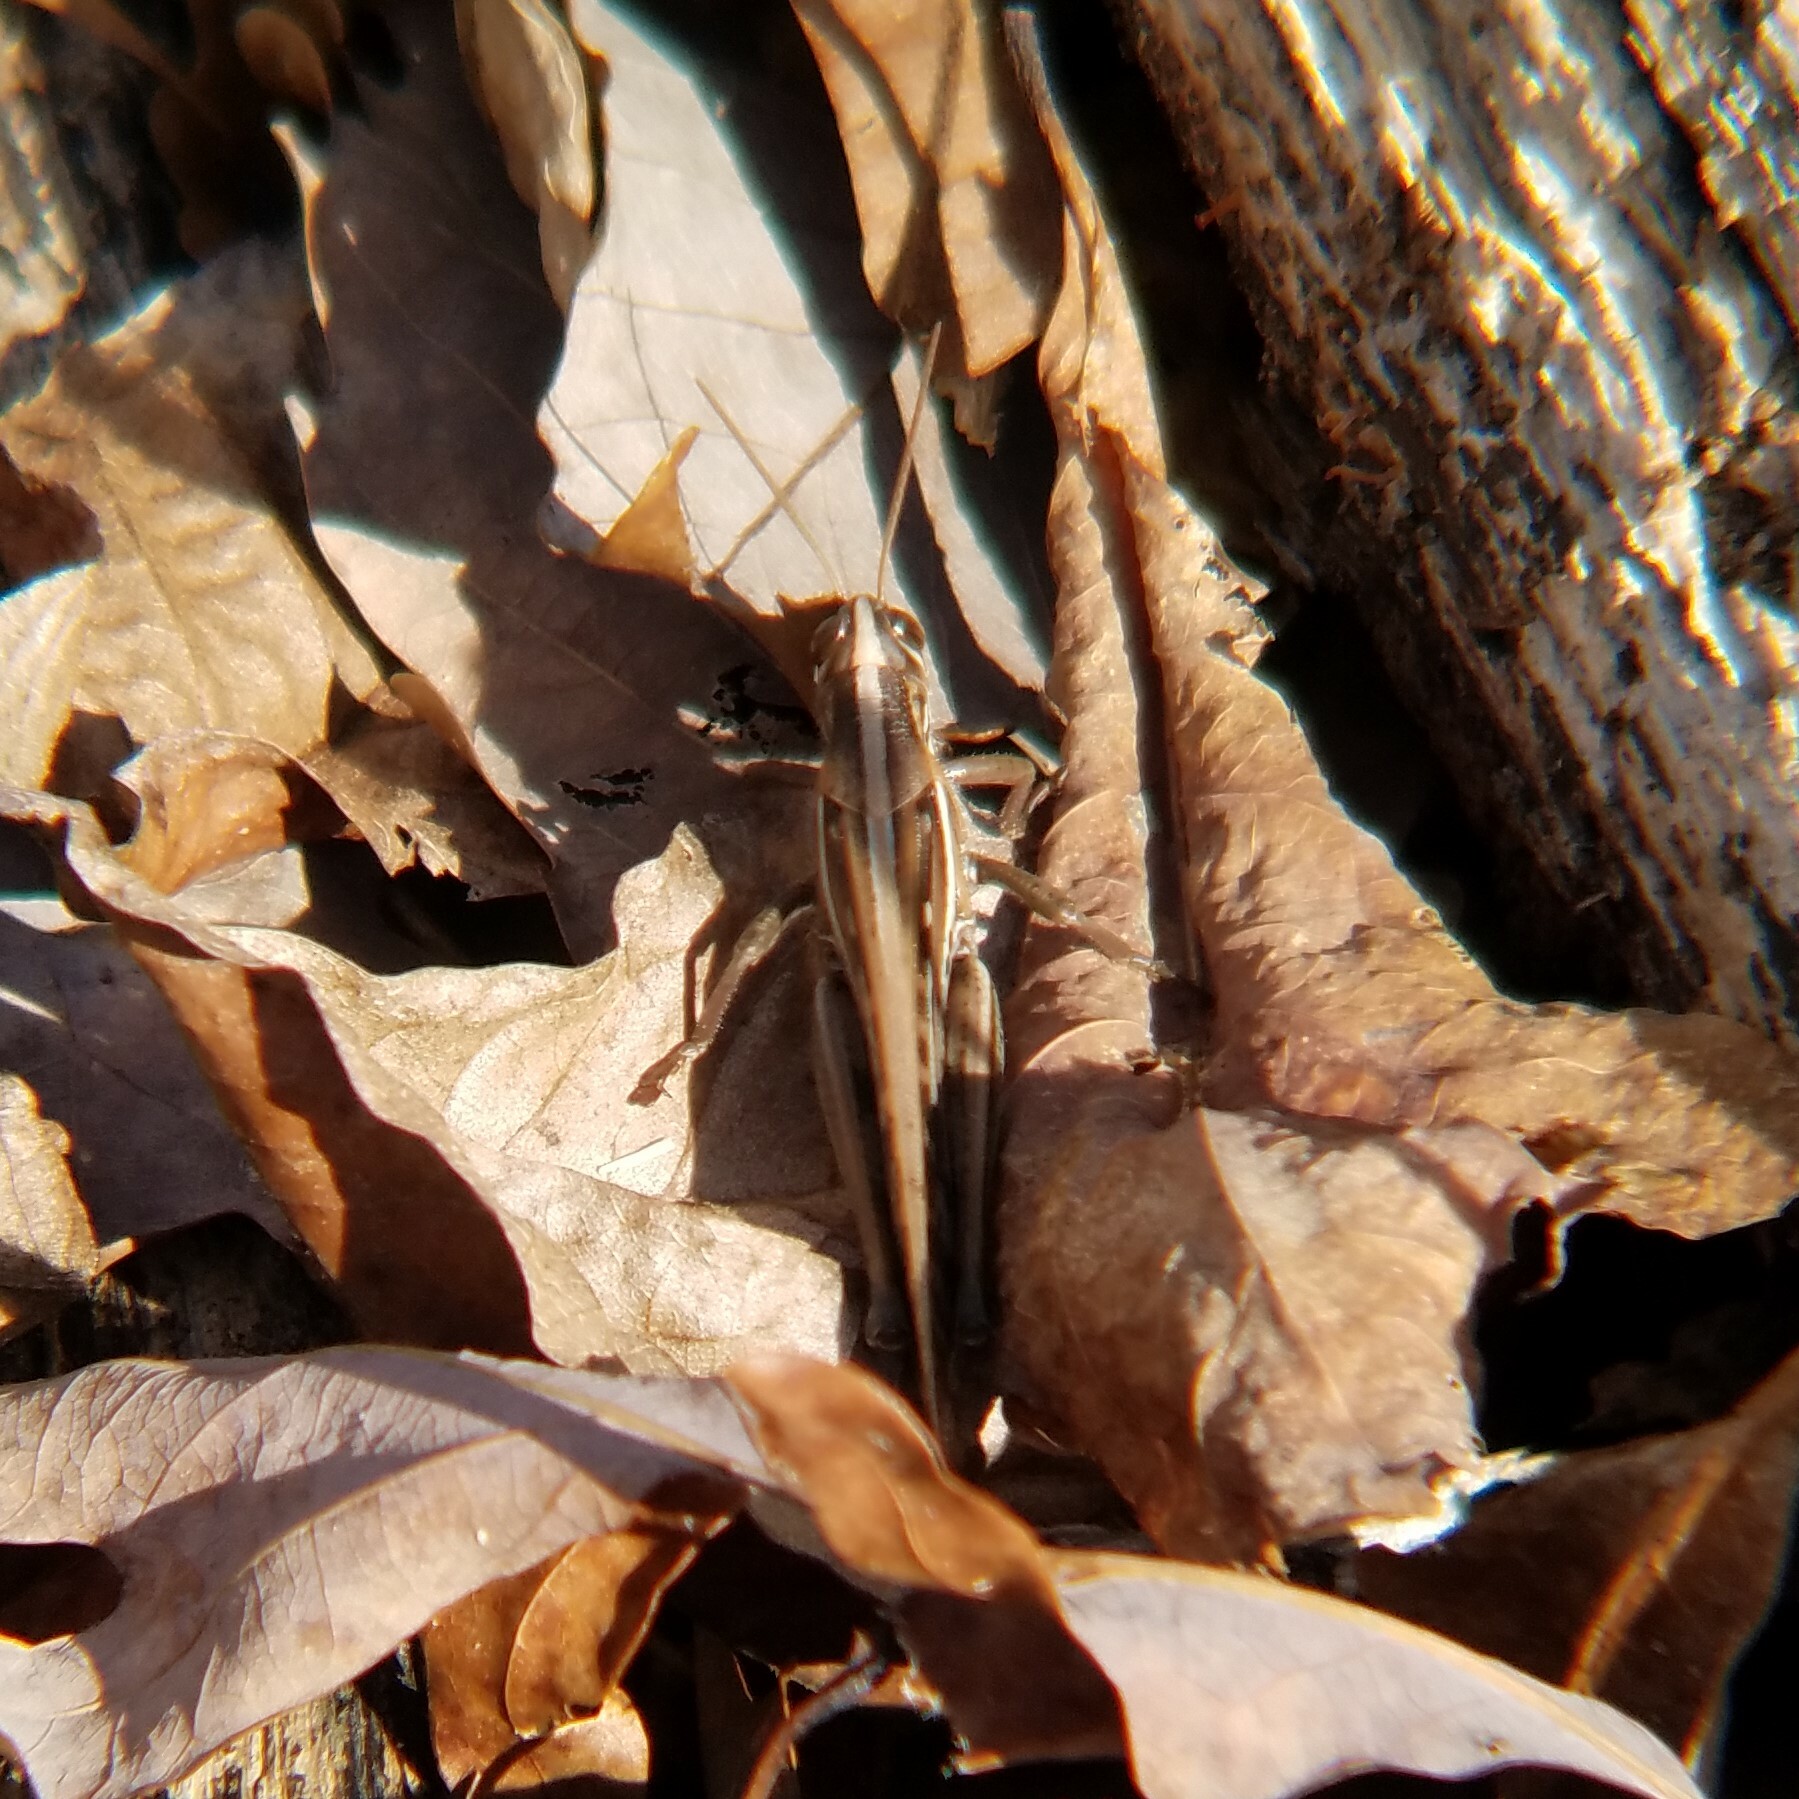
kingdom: Animalia
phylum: Arthropoda
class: Insecta
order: Orthoptera
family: Acrididae
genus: Schistocerca
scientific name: Schistocerca americana
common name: American bird locust
